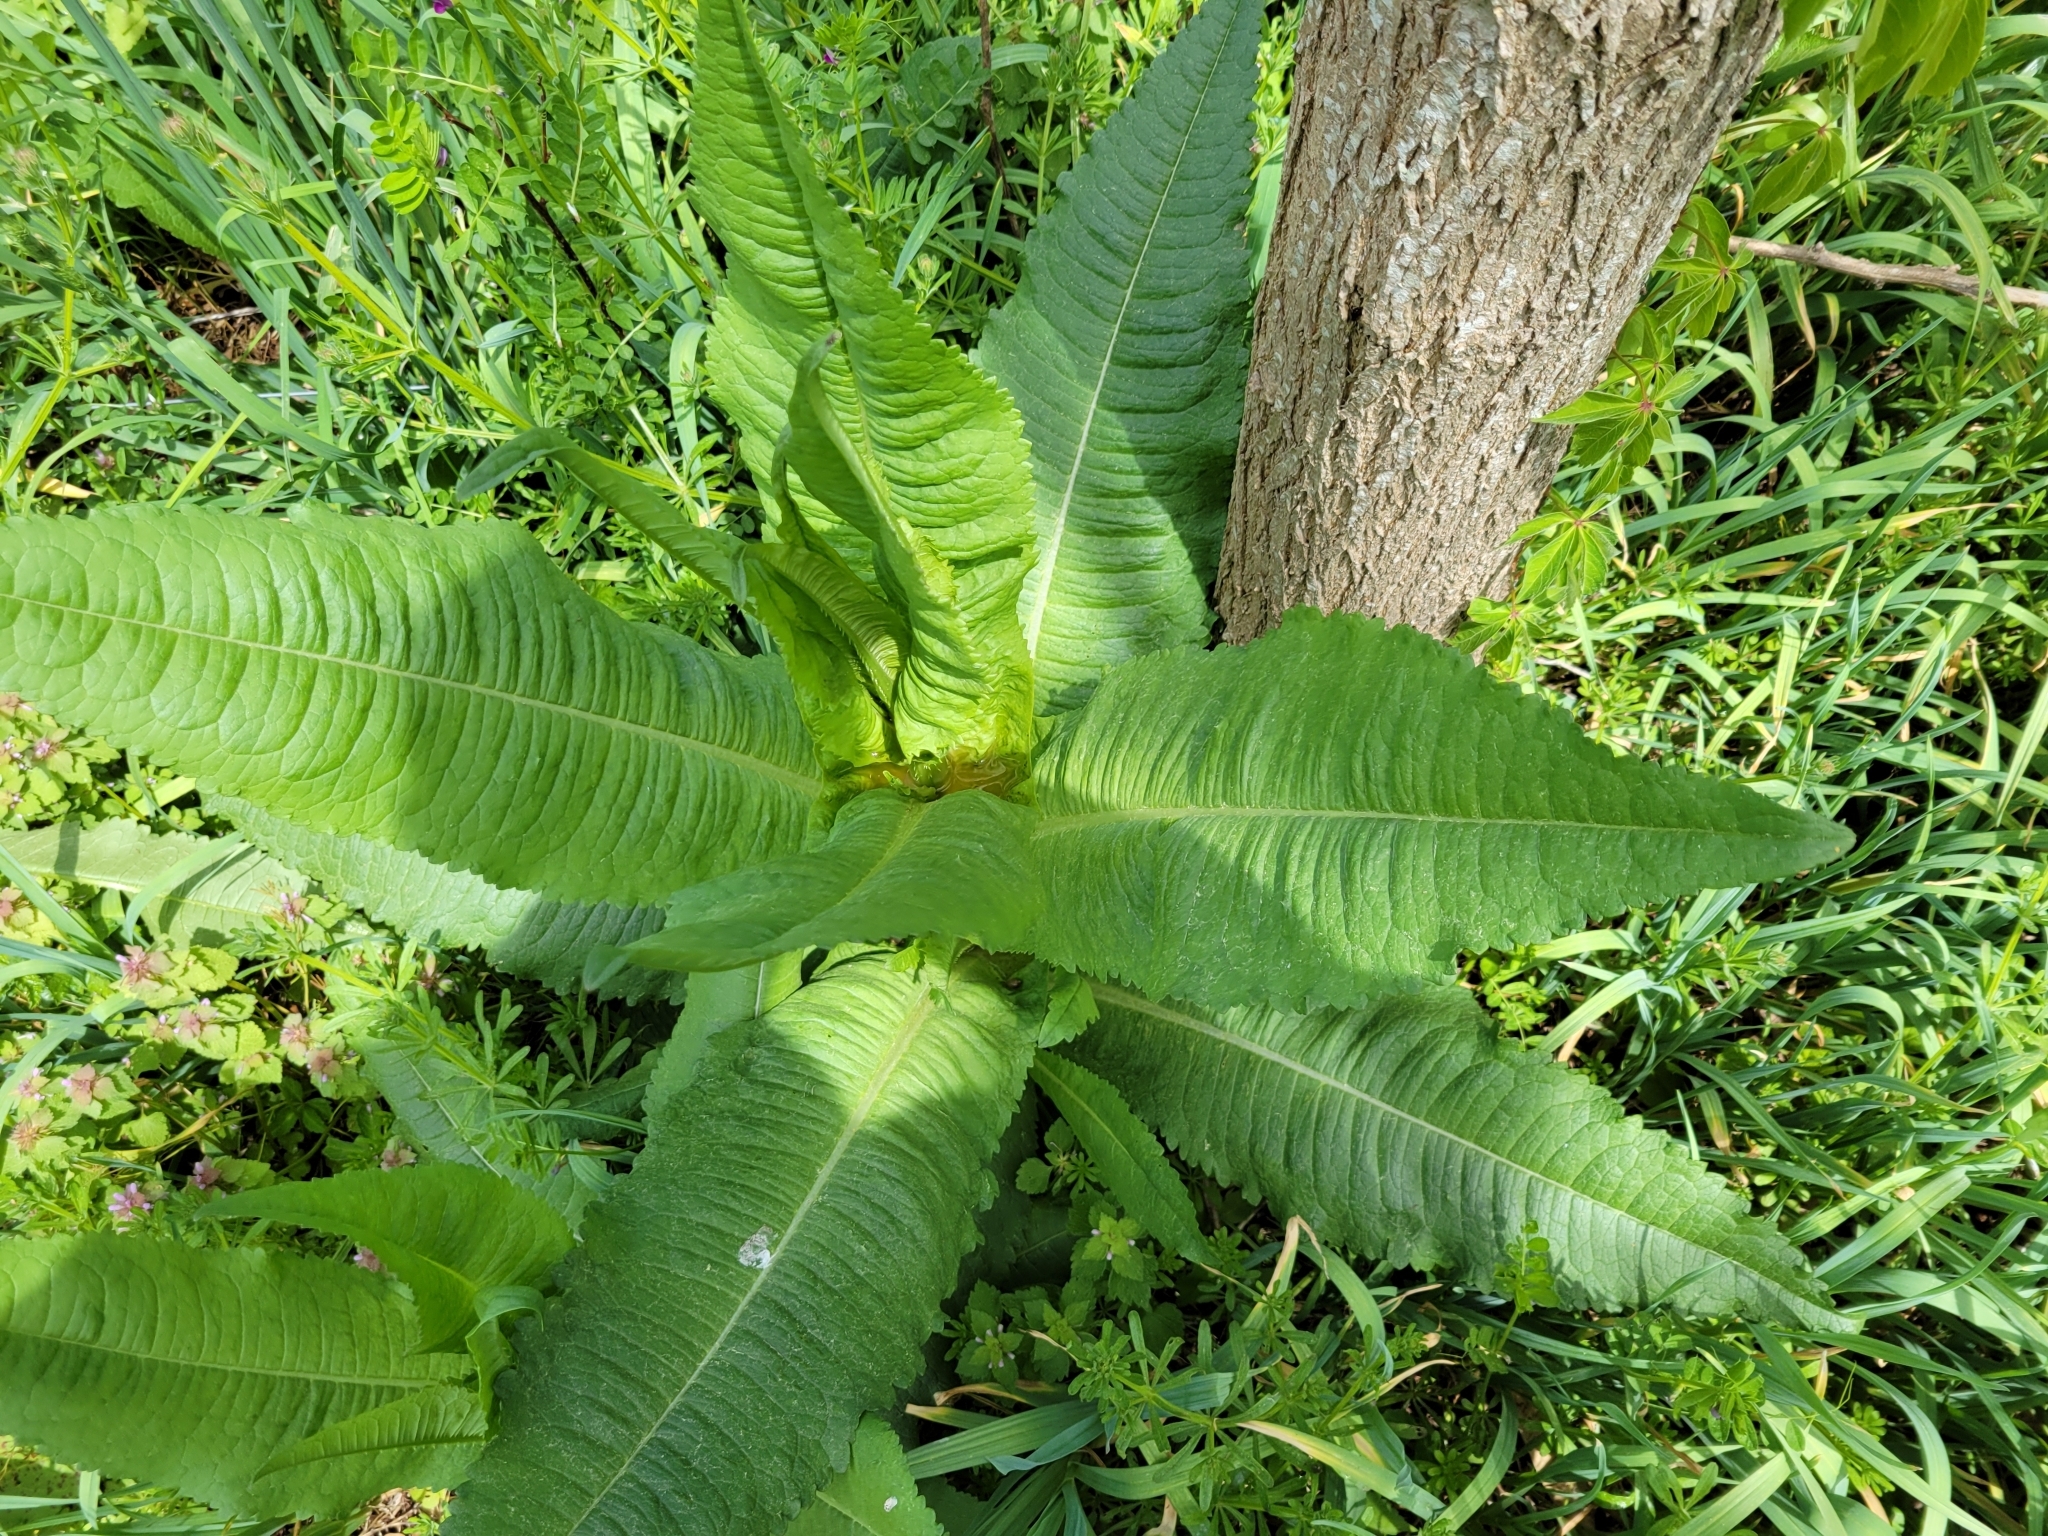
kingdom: Plantae
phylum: Tracheophyta
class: Magnoliopsida
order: Dipsacales
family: Caprifoliaceae
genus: Dipsacus
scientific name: Dipsacus fullonum
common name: Teasel
